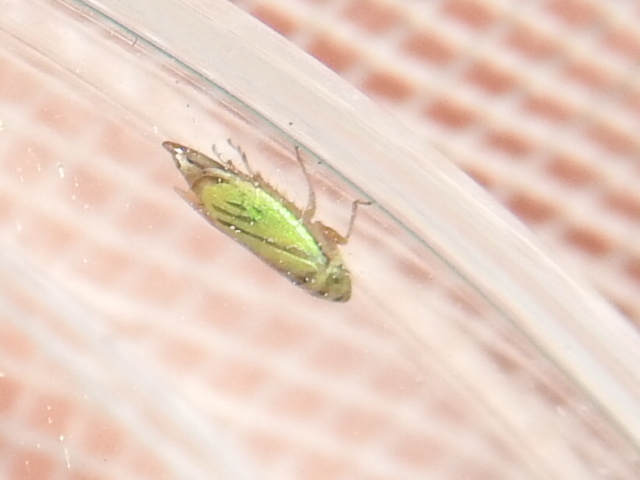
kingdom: Animalia
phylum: Arthropoda
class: Insecta
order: Hemiptera
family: Cicadellidae
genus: Stirellus
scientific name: Stirellus bicolor
